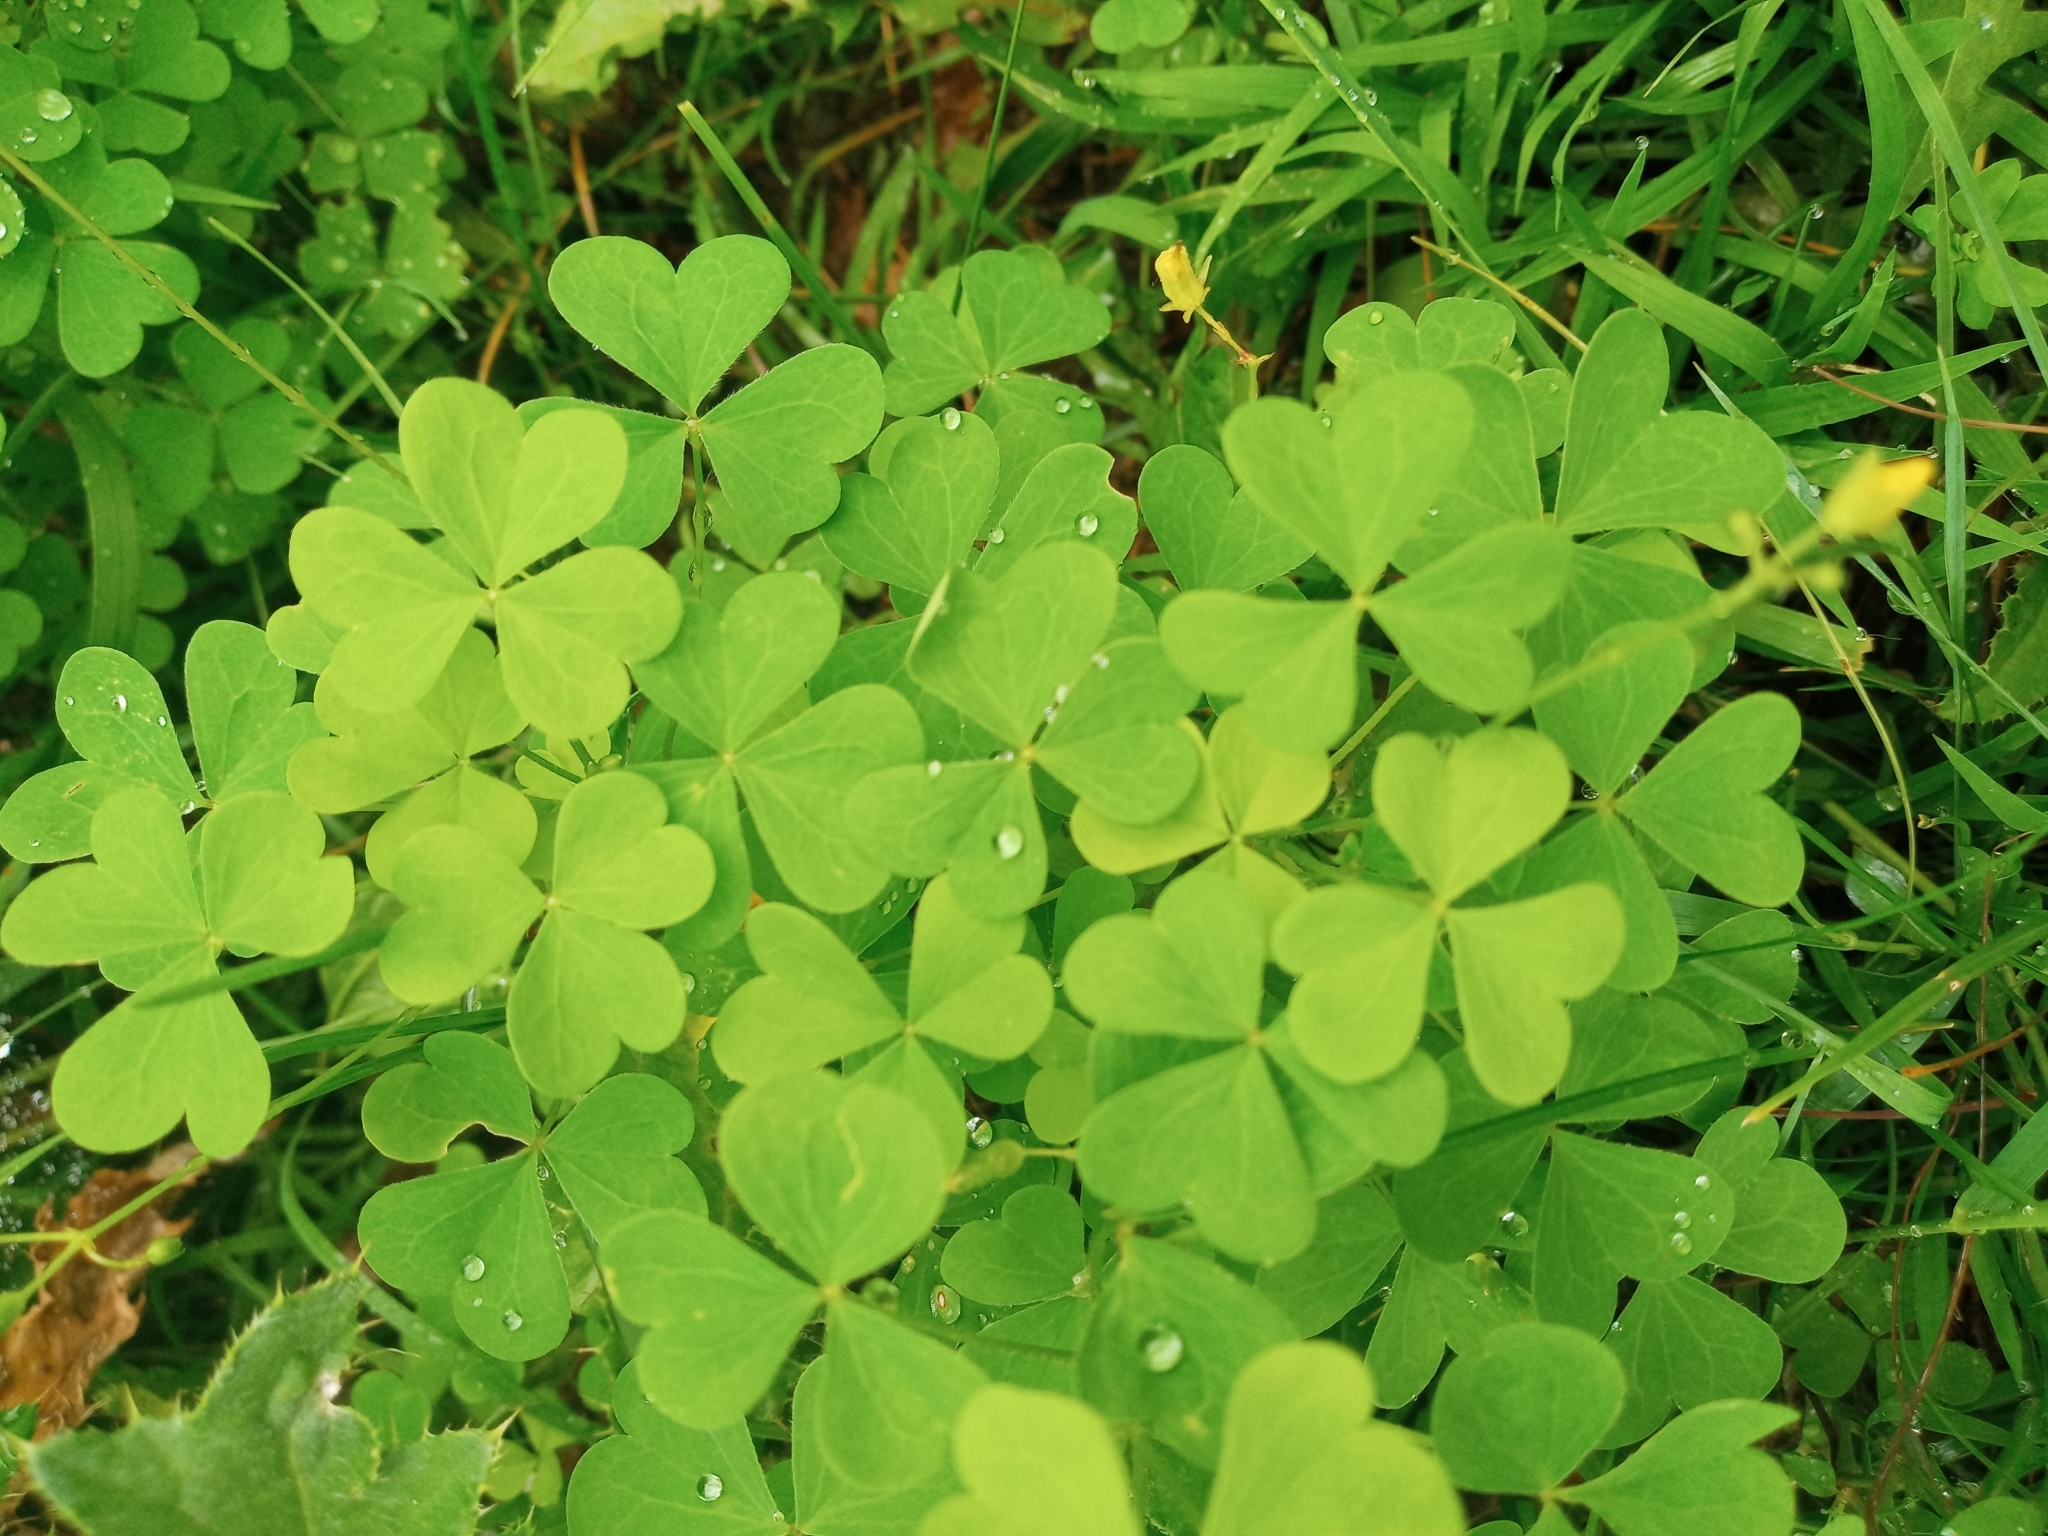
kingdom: Plantae
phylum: Tracheophyta
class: Magnoliopsida
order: Oxalidales
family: Oxalidaceae
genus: Oxalis
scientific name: Oxalis dillenii
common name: Sussex yellow-sorrel
